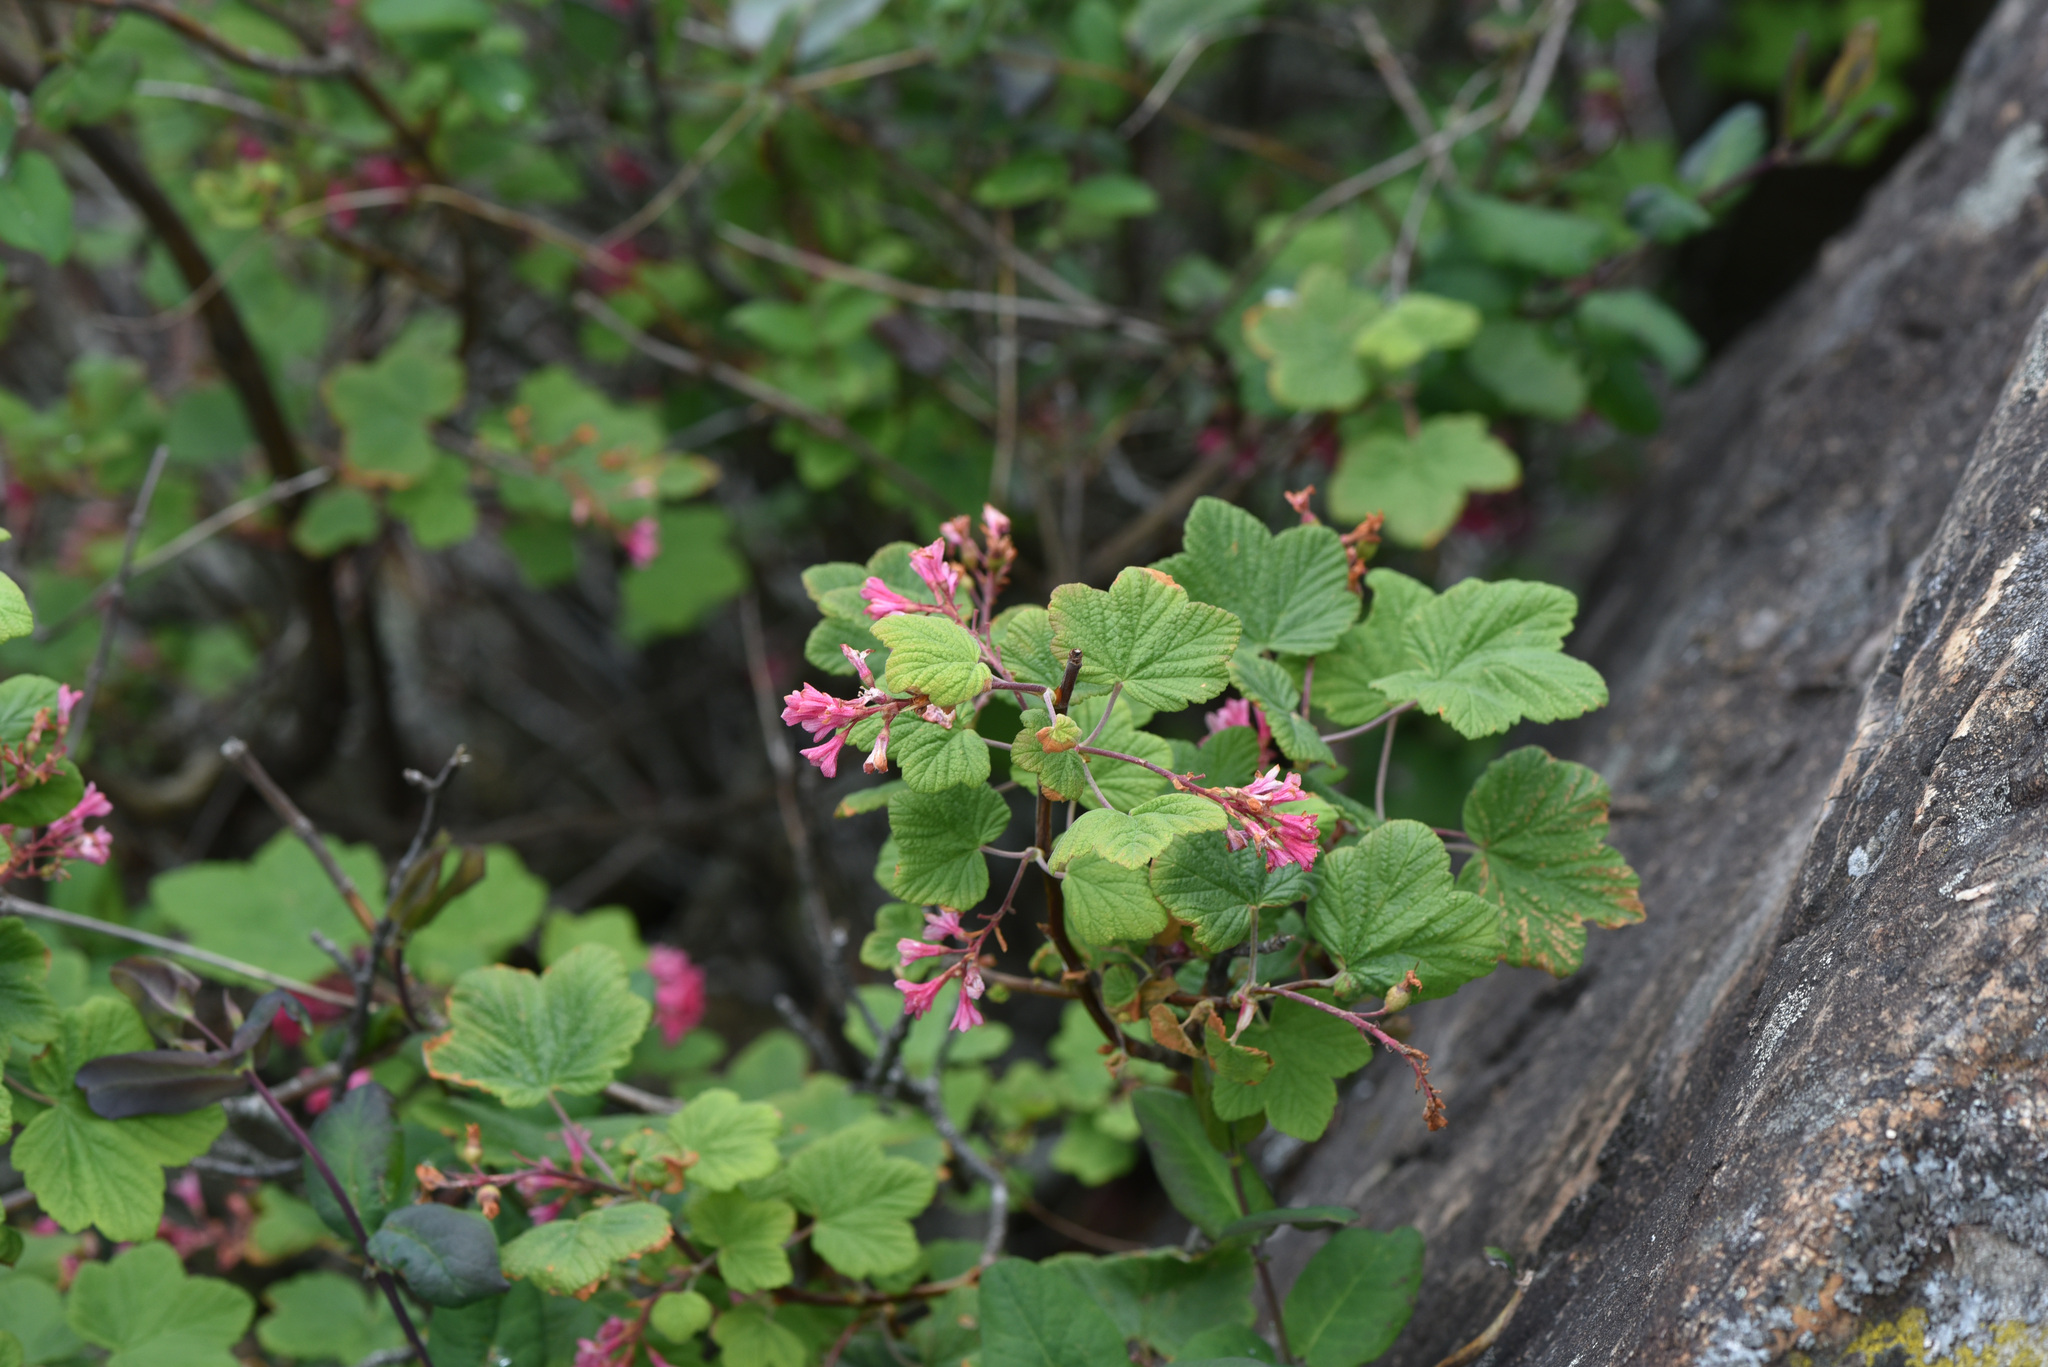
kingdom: Plantae
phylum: Tracheophyta
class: Magnoliopsida
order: Saxifragales
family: Grossulariaceae
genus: Ribes
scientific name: Ribes sanguineum
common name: Flowering currant
